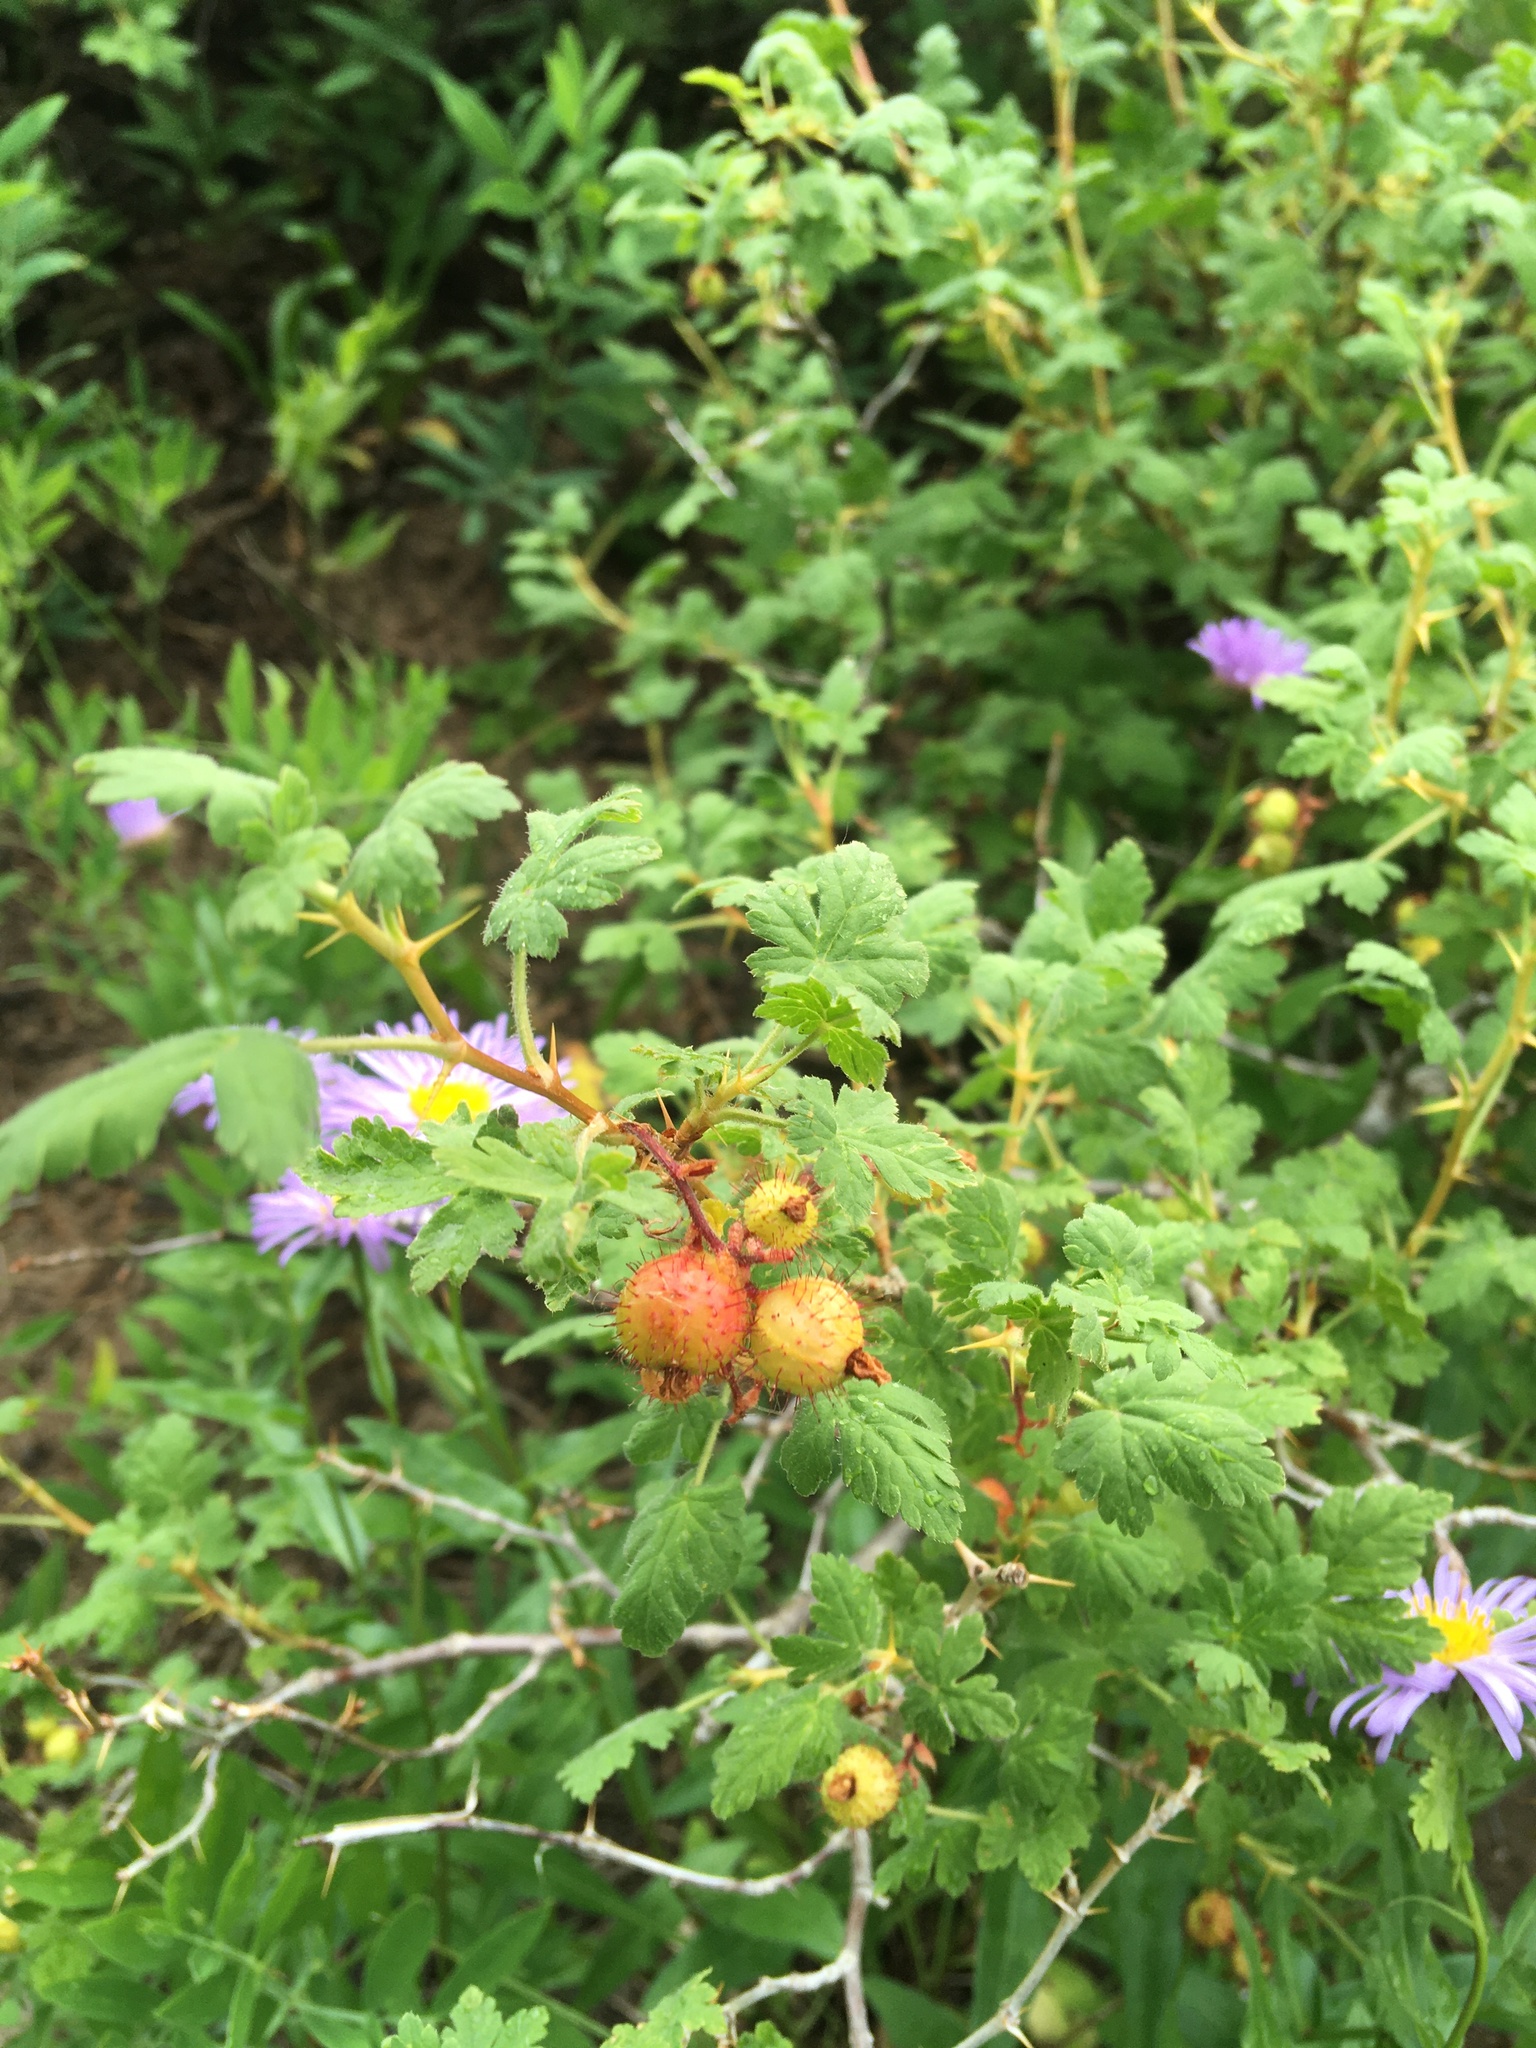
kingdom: Plantae
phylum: Tracheophyta
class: Magnoliopsida
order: Saxifragales
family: Grossulariaceae
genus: Ribes
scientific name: Ribes montigenum
